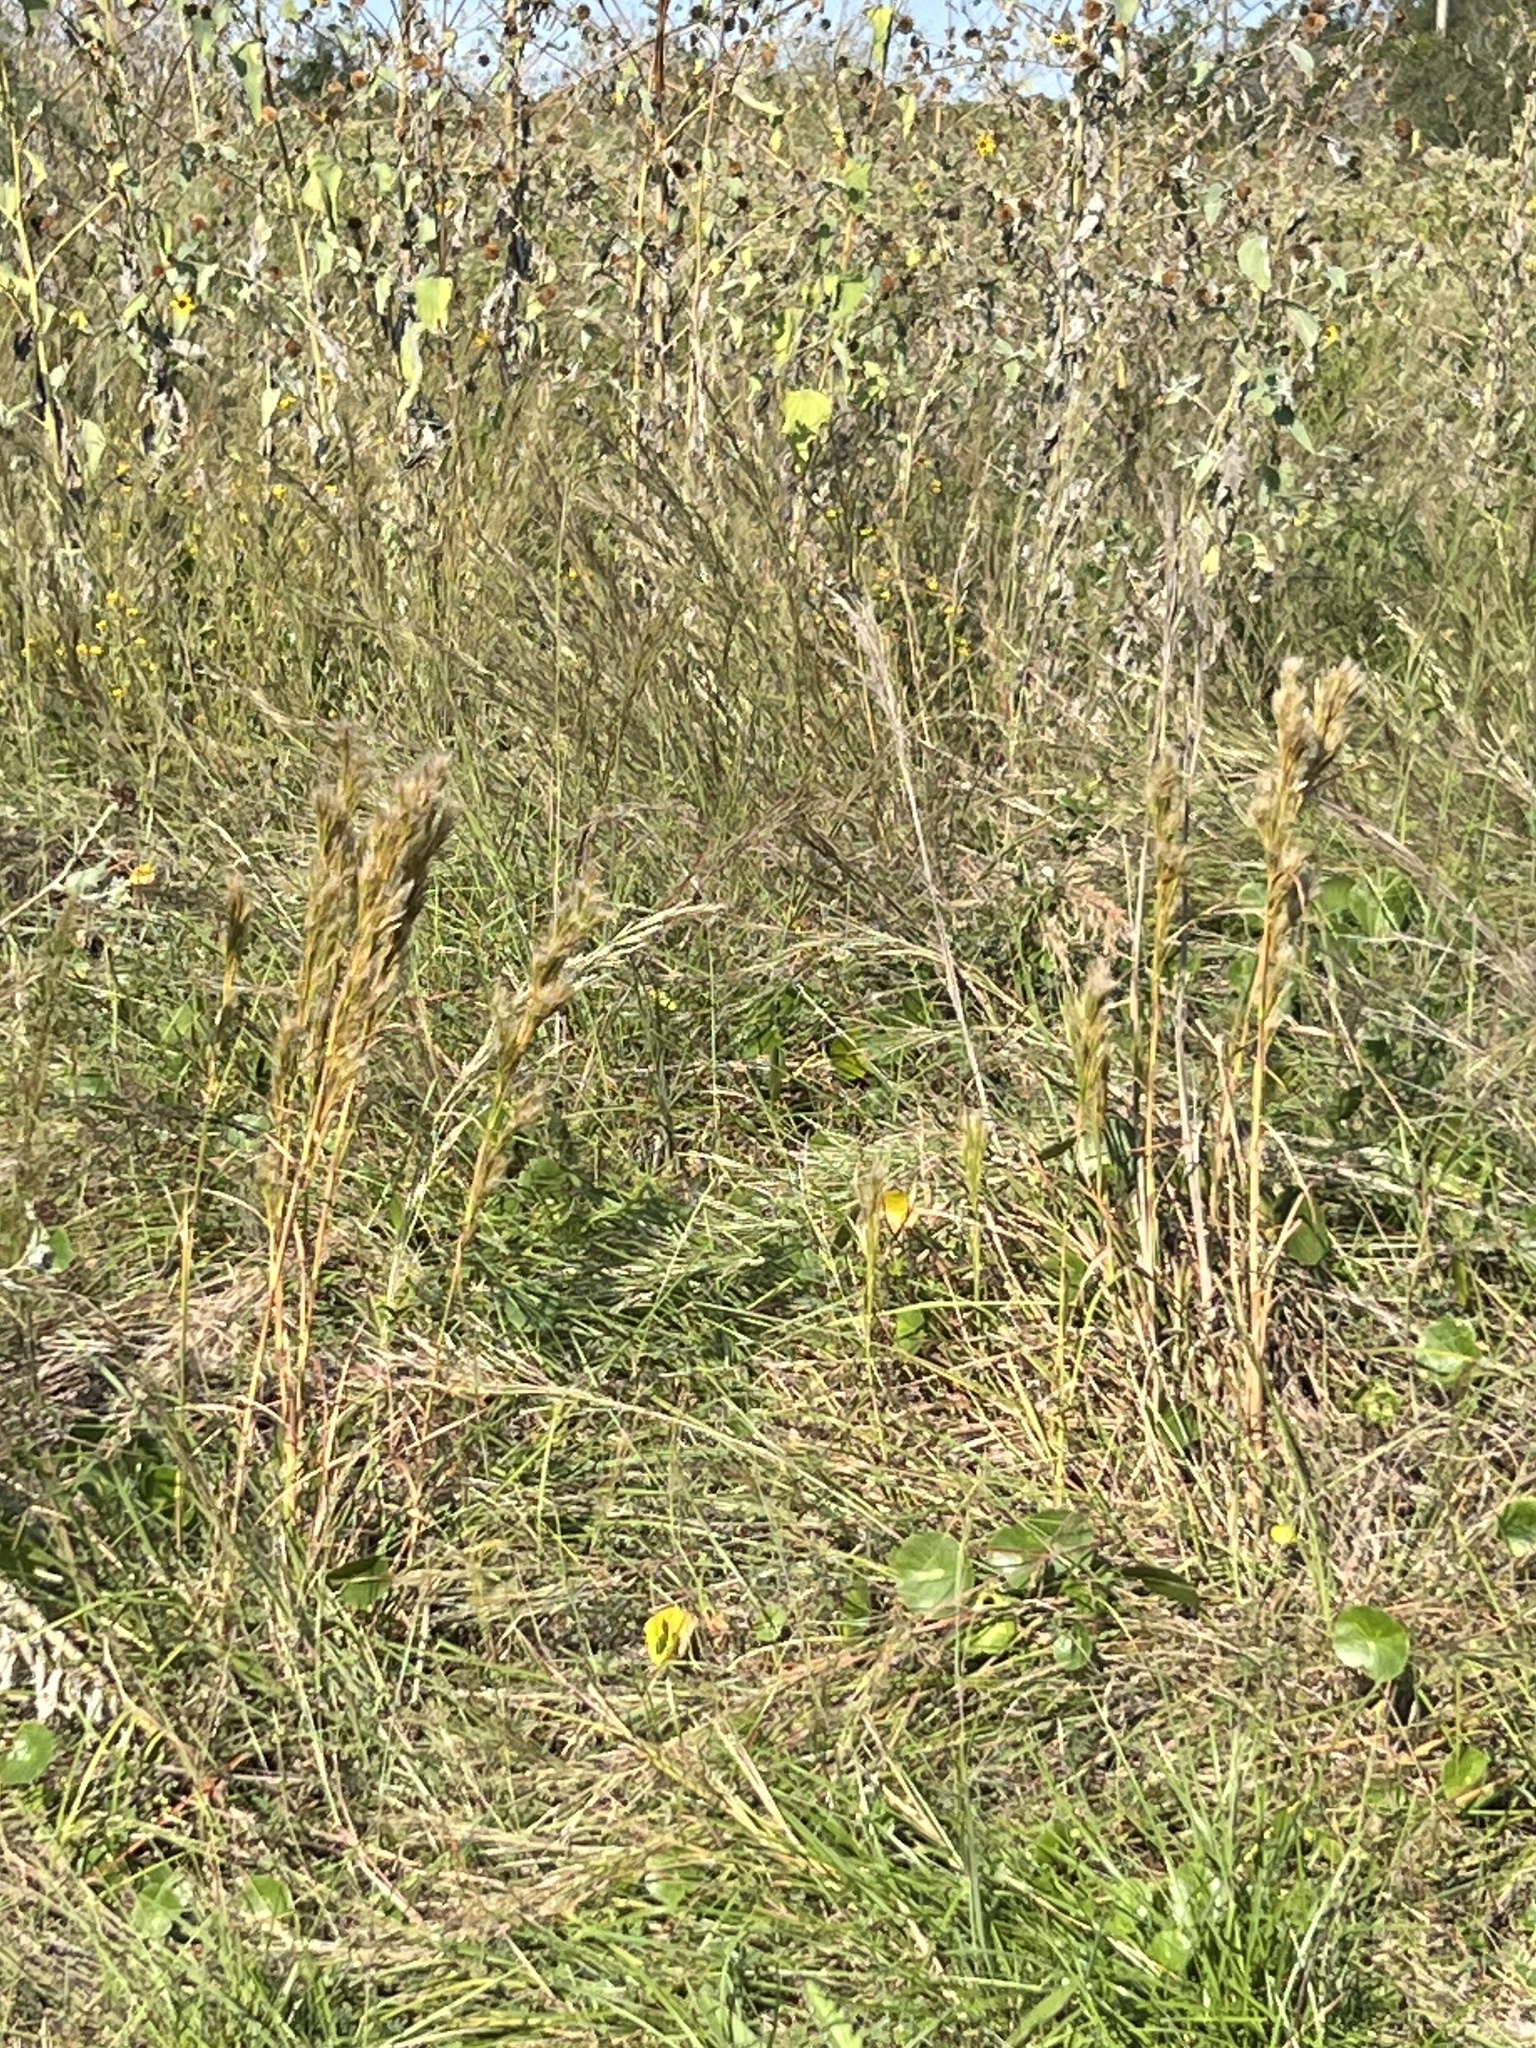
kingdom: Plantae
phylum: Tracheophyta
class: Liliopsida
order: Poales
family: Poaceae
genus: Andropogon
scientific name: Andropogon tenuispatheus
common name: Bushy bluestem
